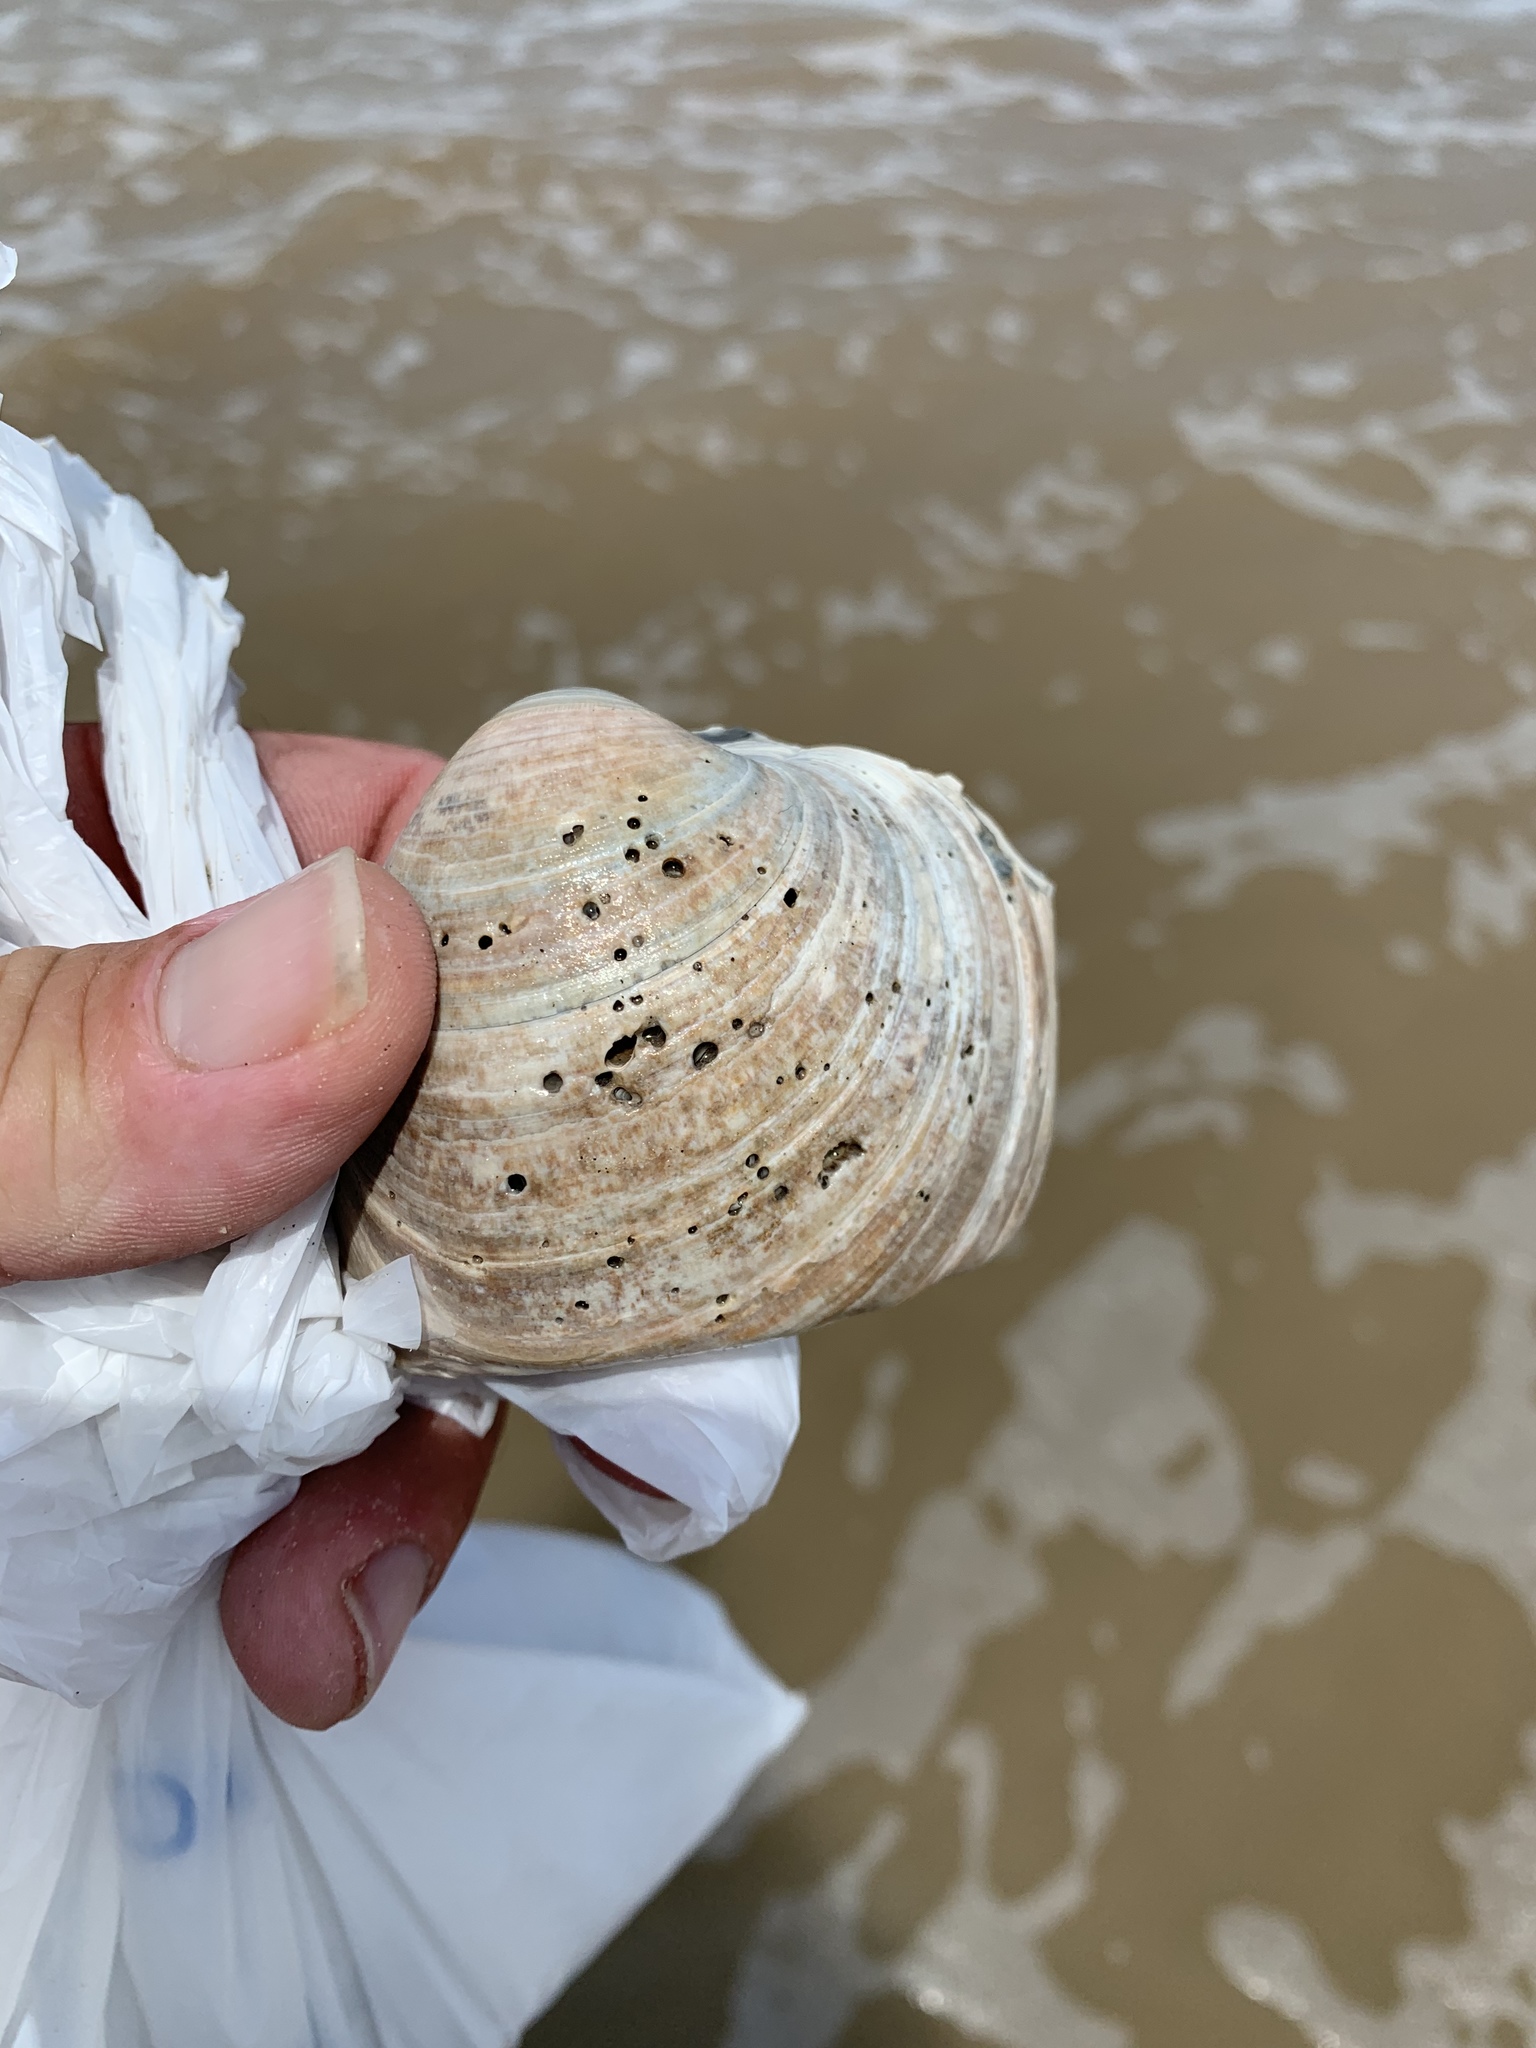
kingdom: Animalia
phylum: Mollusca
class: Bivalvia
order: Venerida
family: Veneridae
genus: Mercenaria
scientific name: Mercenaria campechiensis
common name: Südliche quahog-muschel
